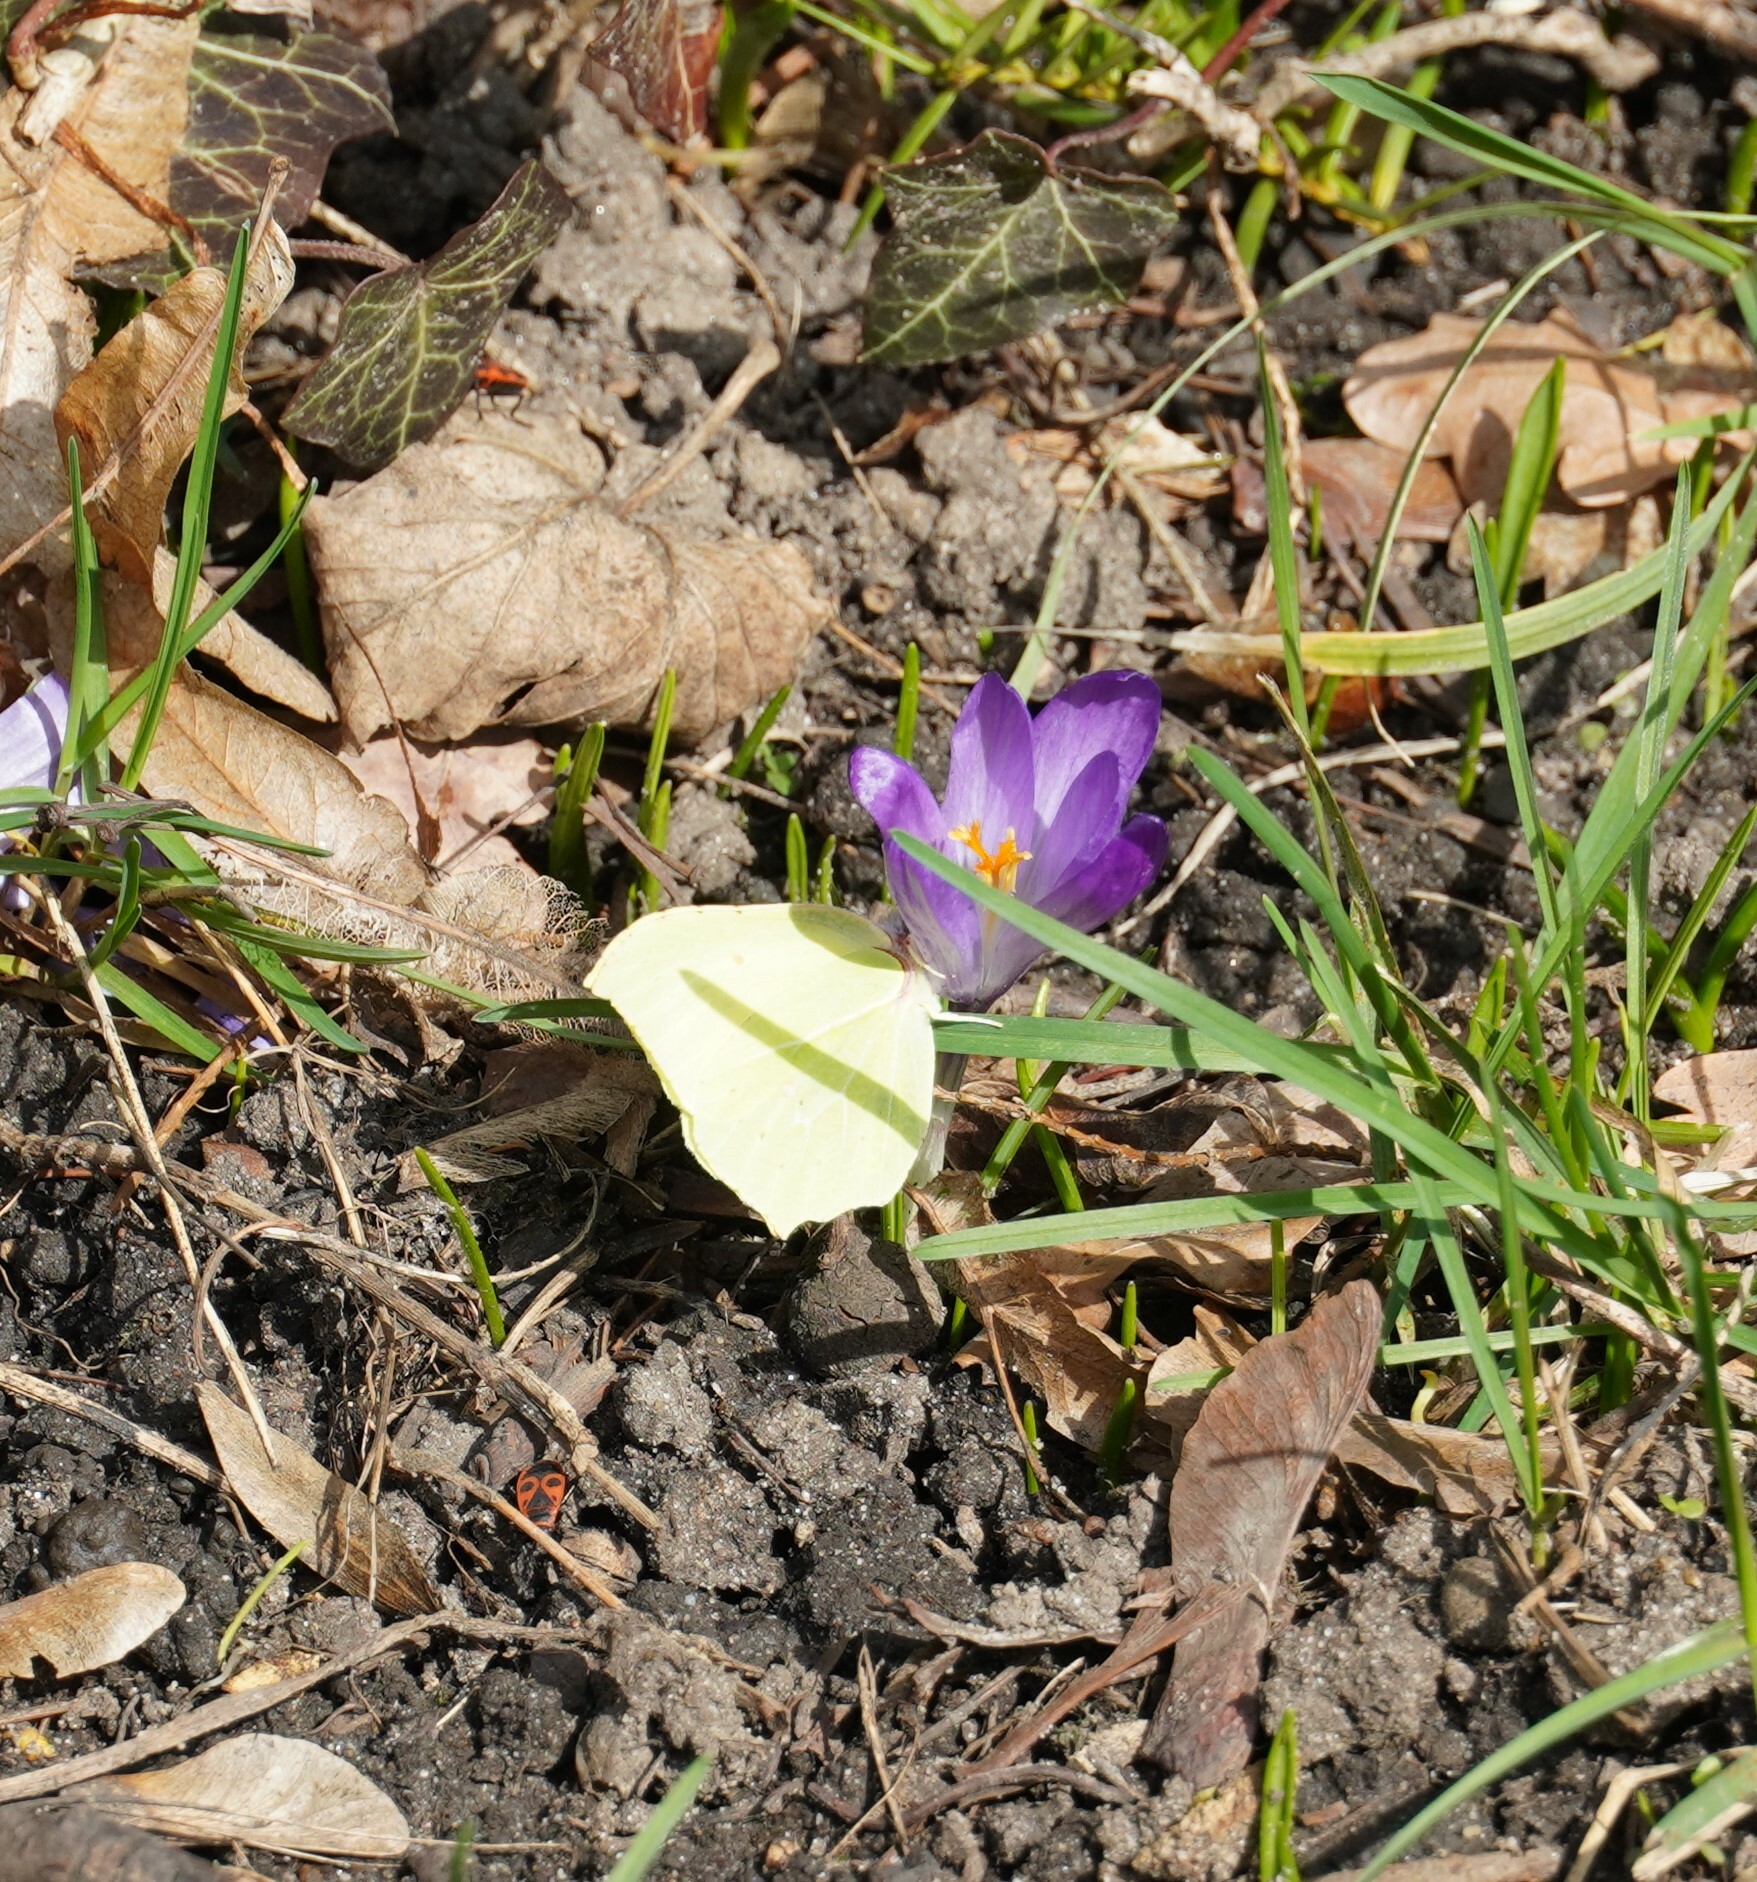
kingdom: Animalia
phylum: Arthropoda
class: Insecta
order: Lepidoptera
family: Pieridae
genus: Gonepteryx
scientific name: Gonepteryx rhamni
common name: Brimstone
